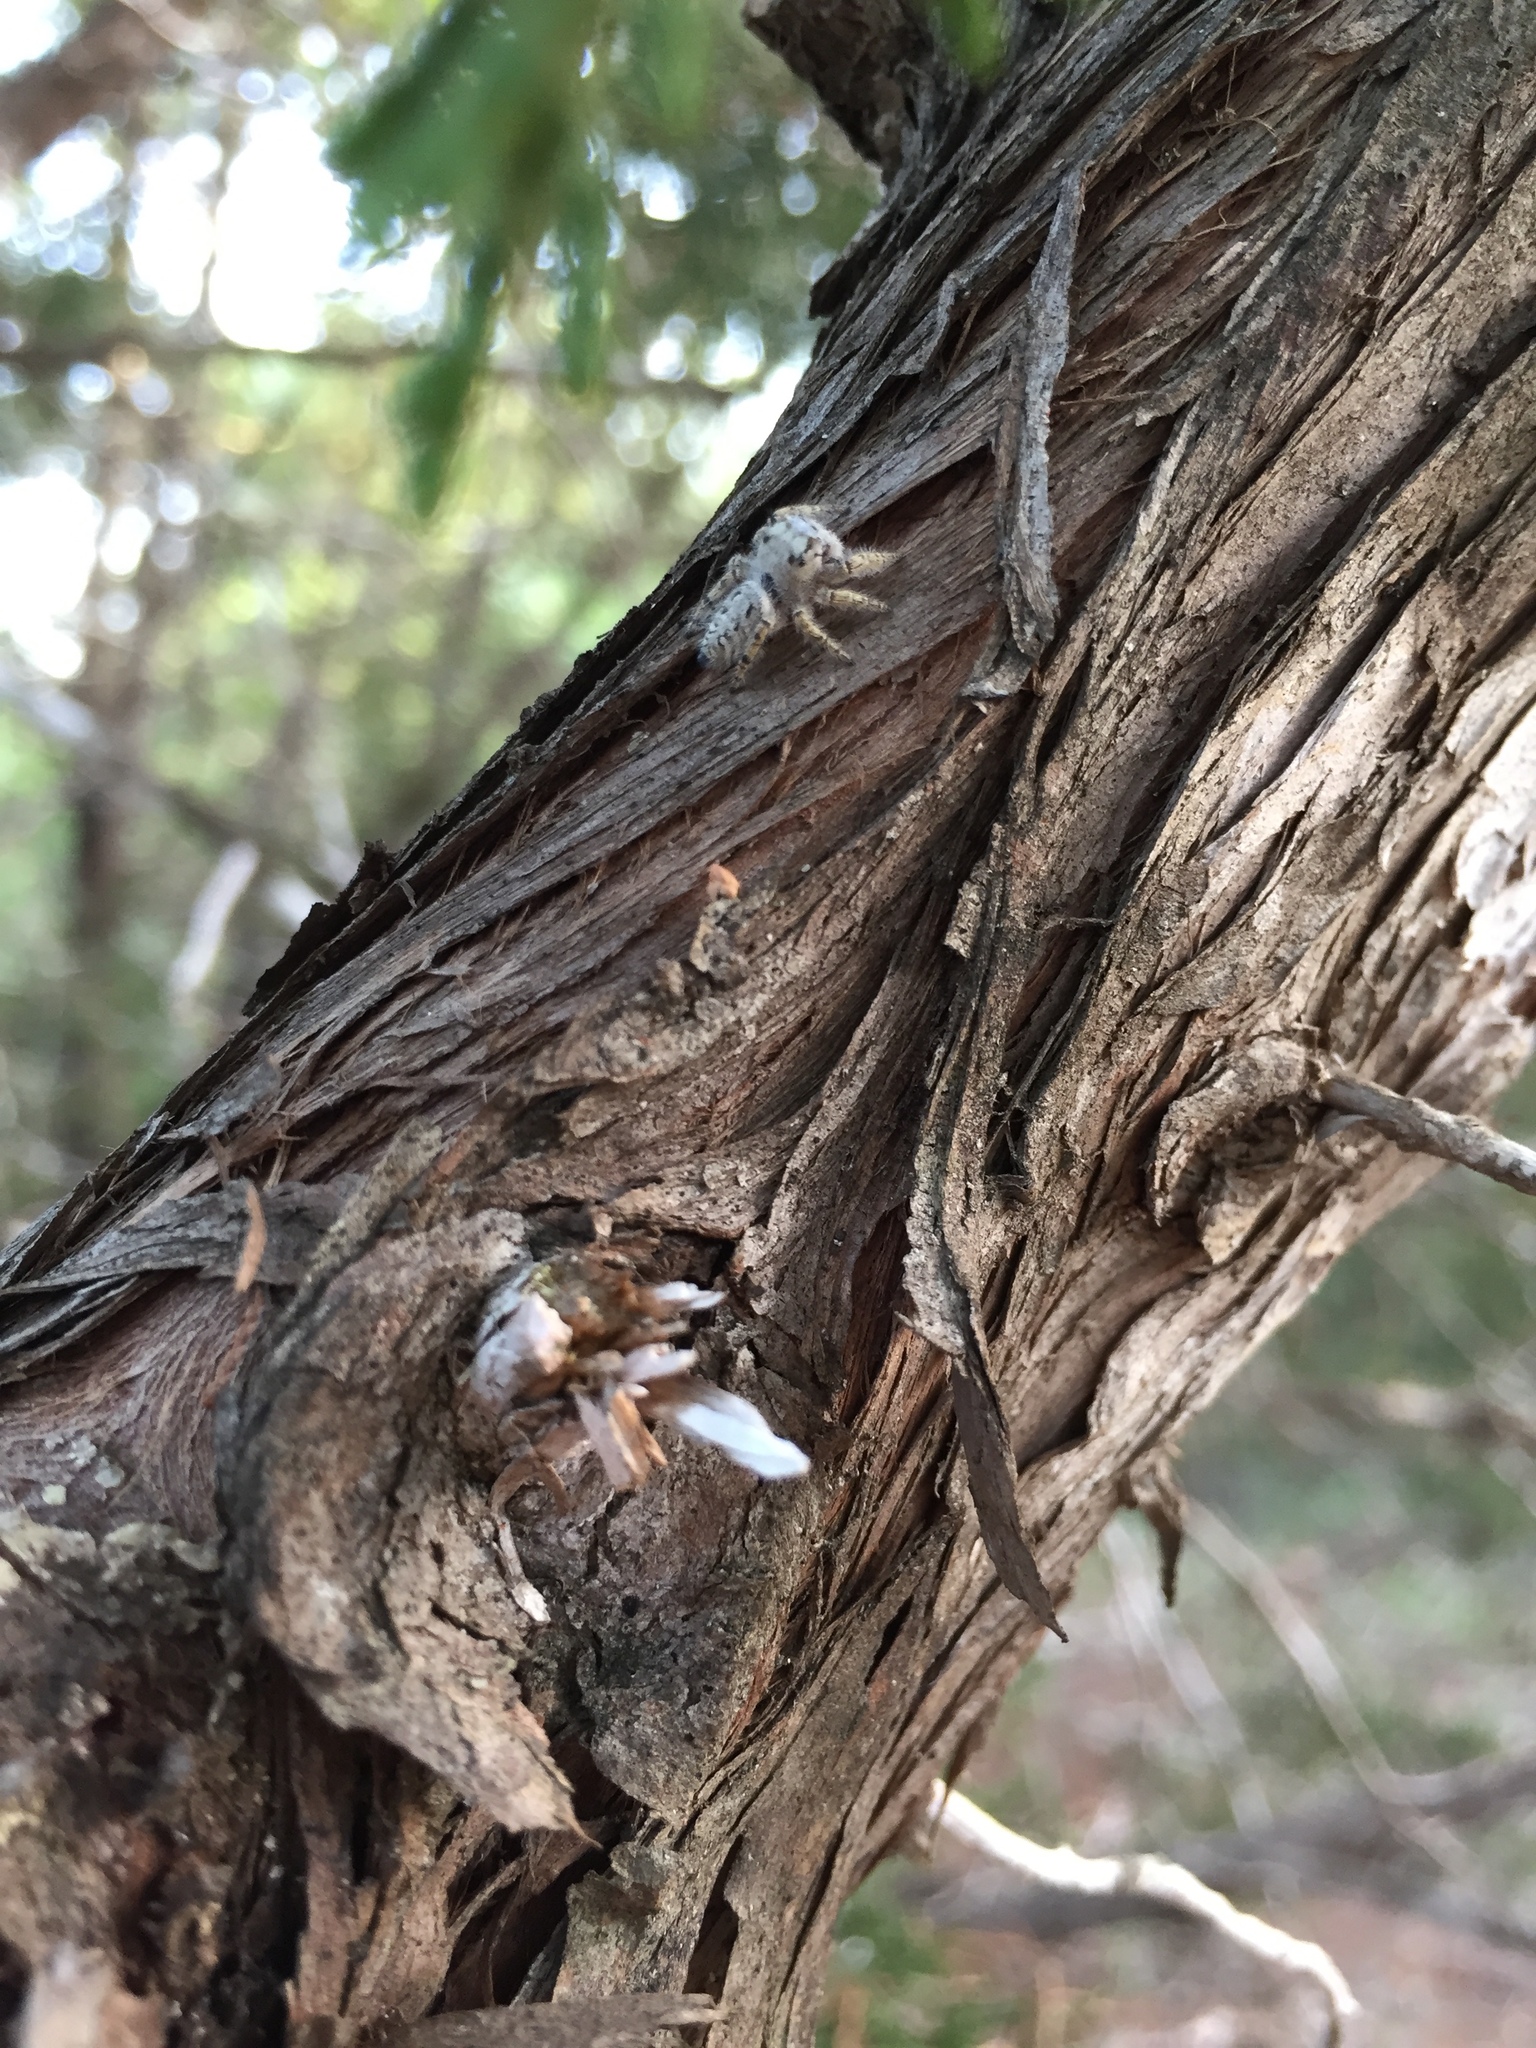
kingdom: Animalia
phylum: Arthropoda
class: Arachnida
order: Araneae
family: Salticidae
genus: Phidippus
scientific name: Phidippus mystaceus
